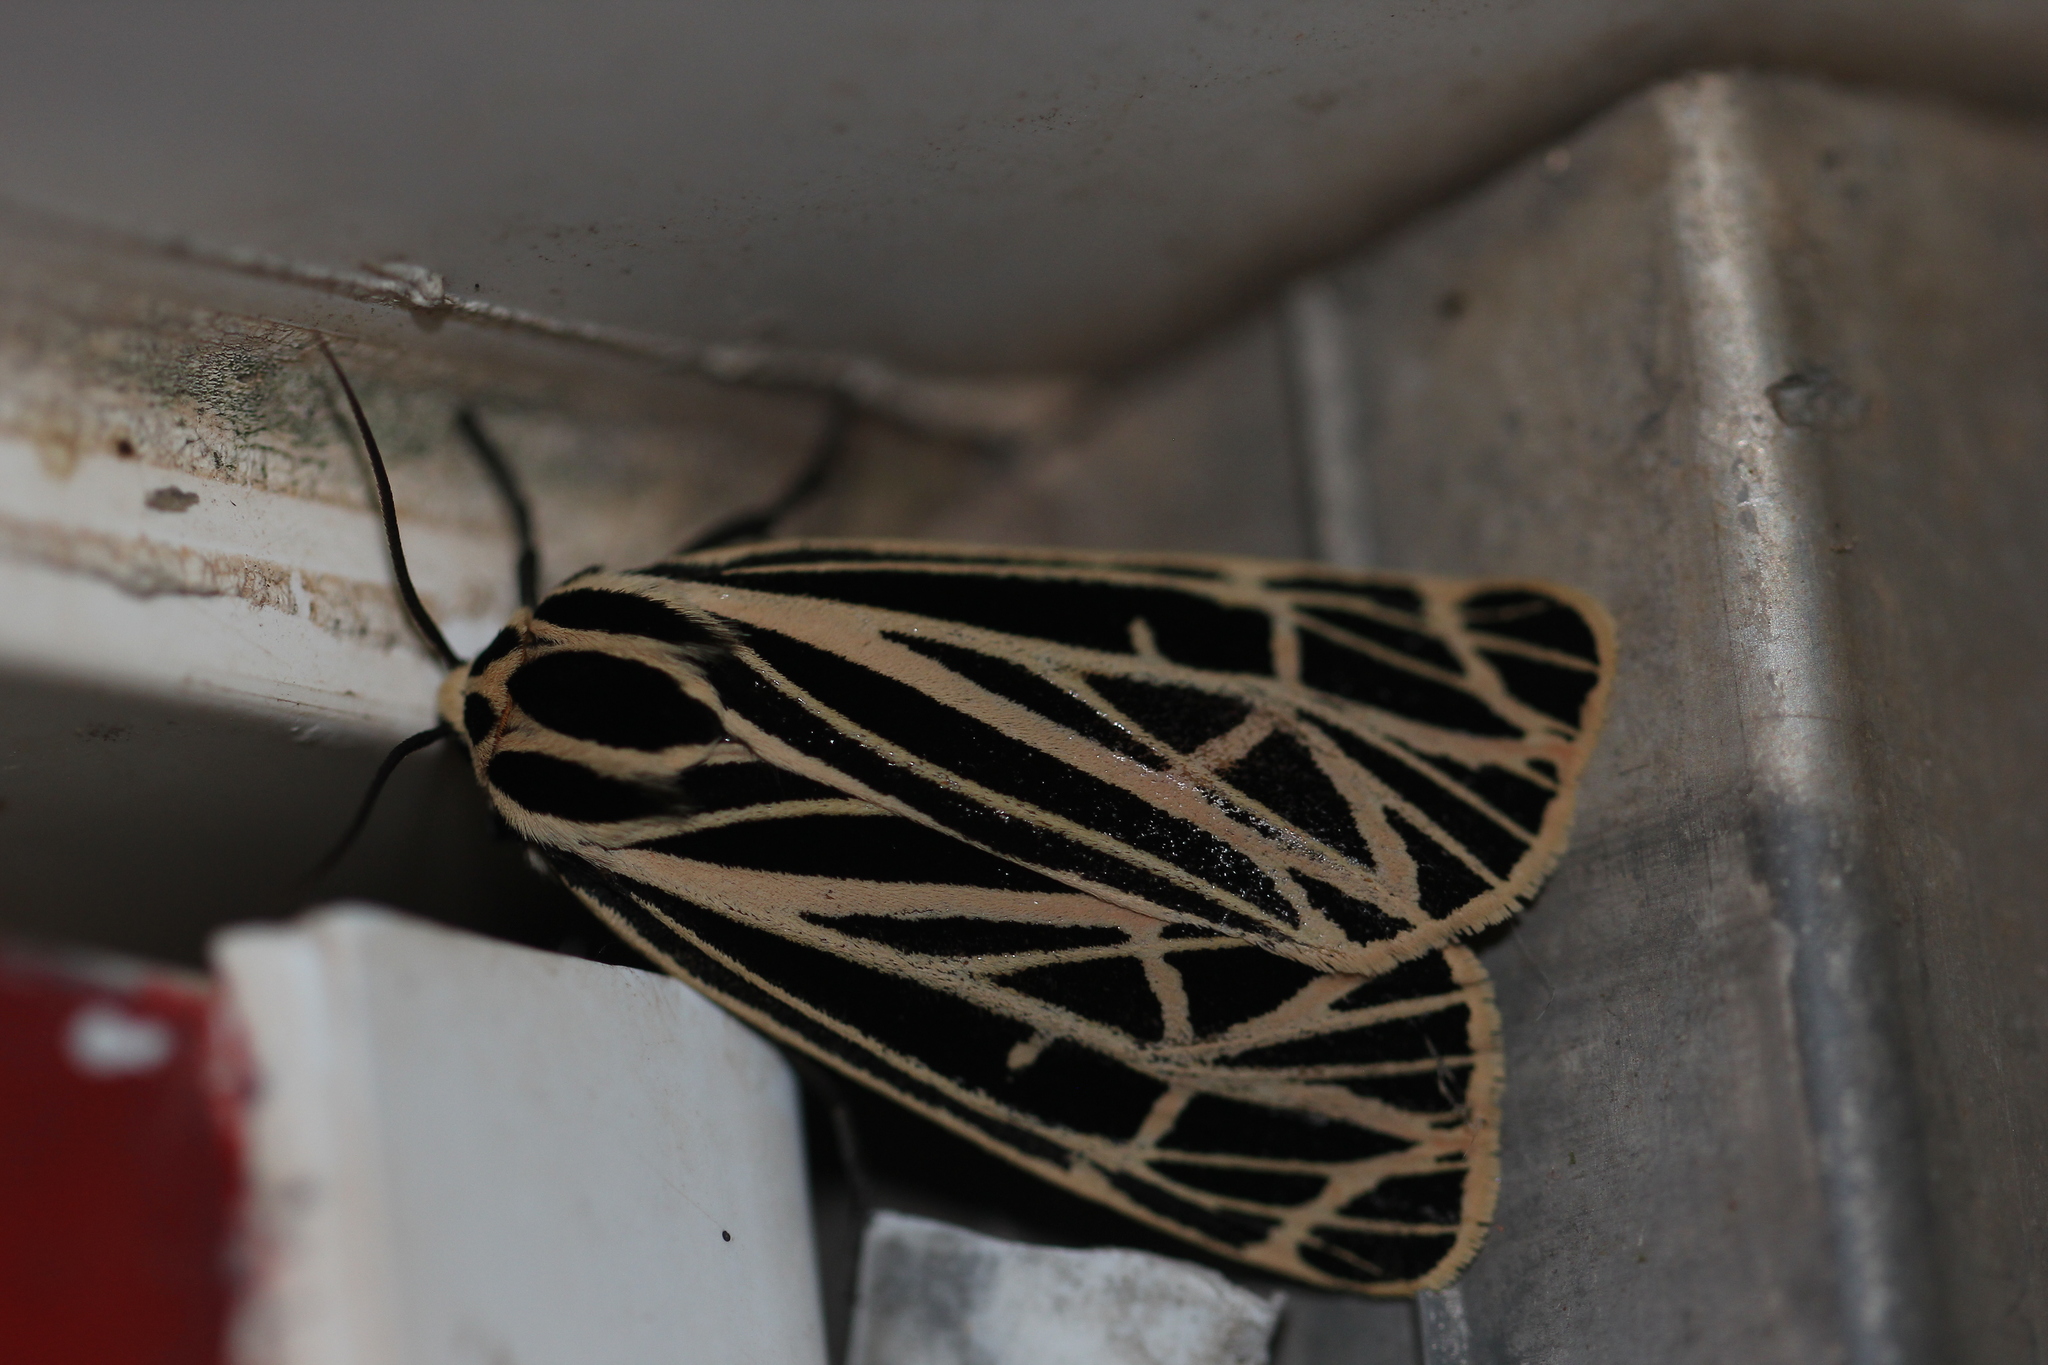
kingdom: Animalia
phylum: Arthropoda
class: Insecta
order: Lepidoptera
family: Erebidae
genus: Grammia
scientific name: Grammia virgo
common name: Virgin tiger moth
